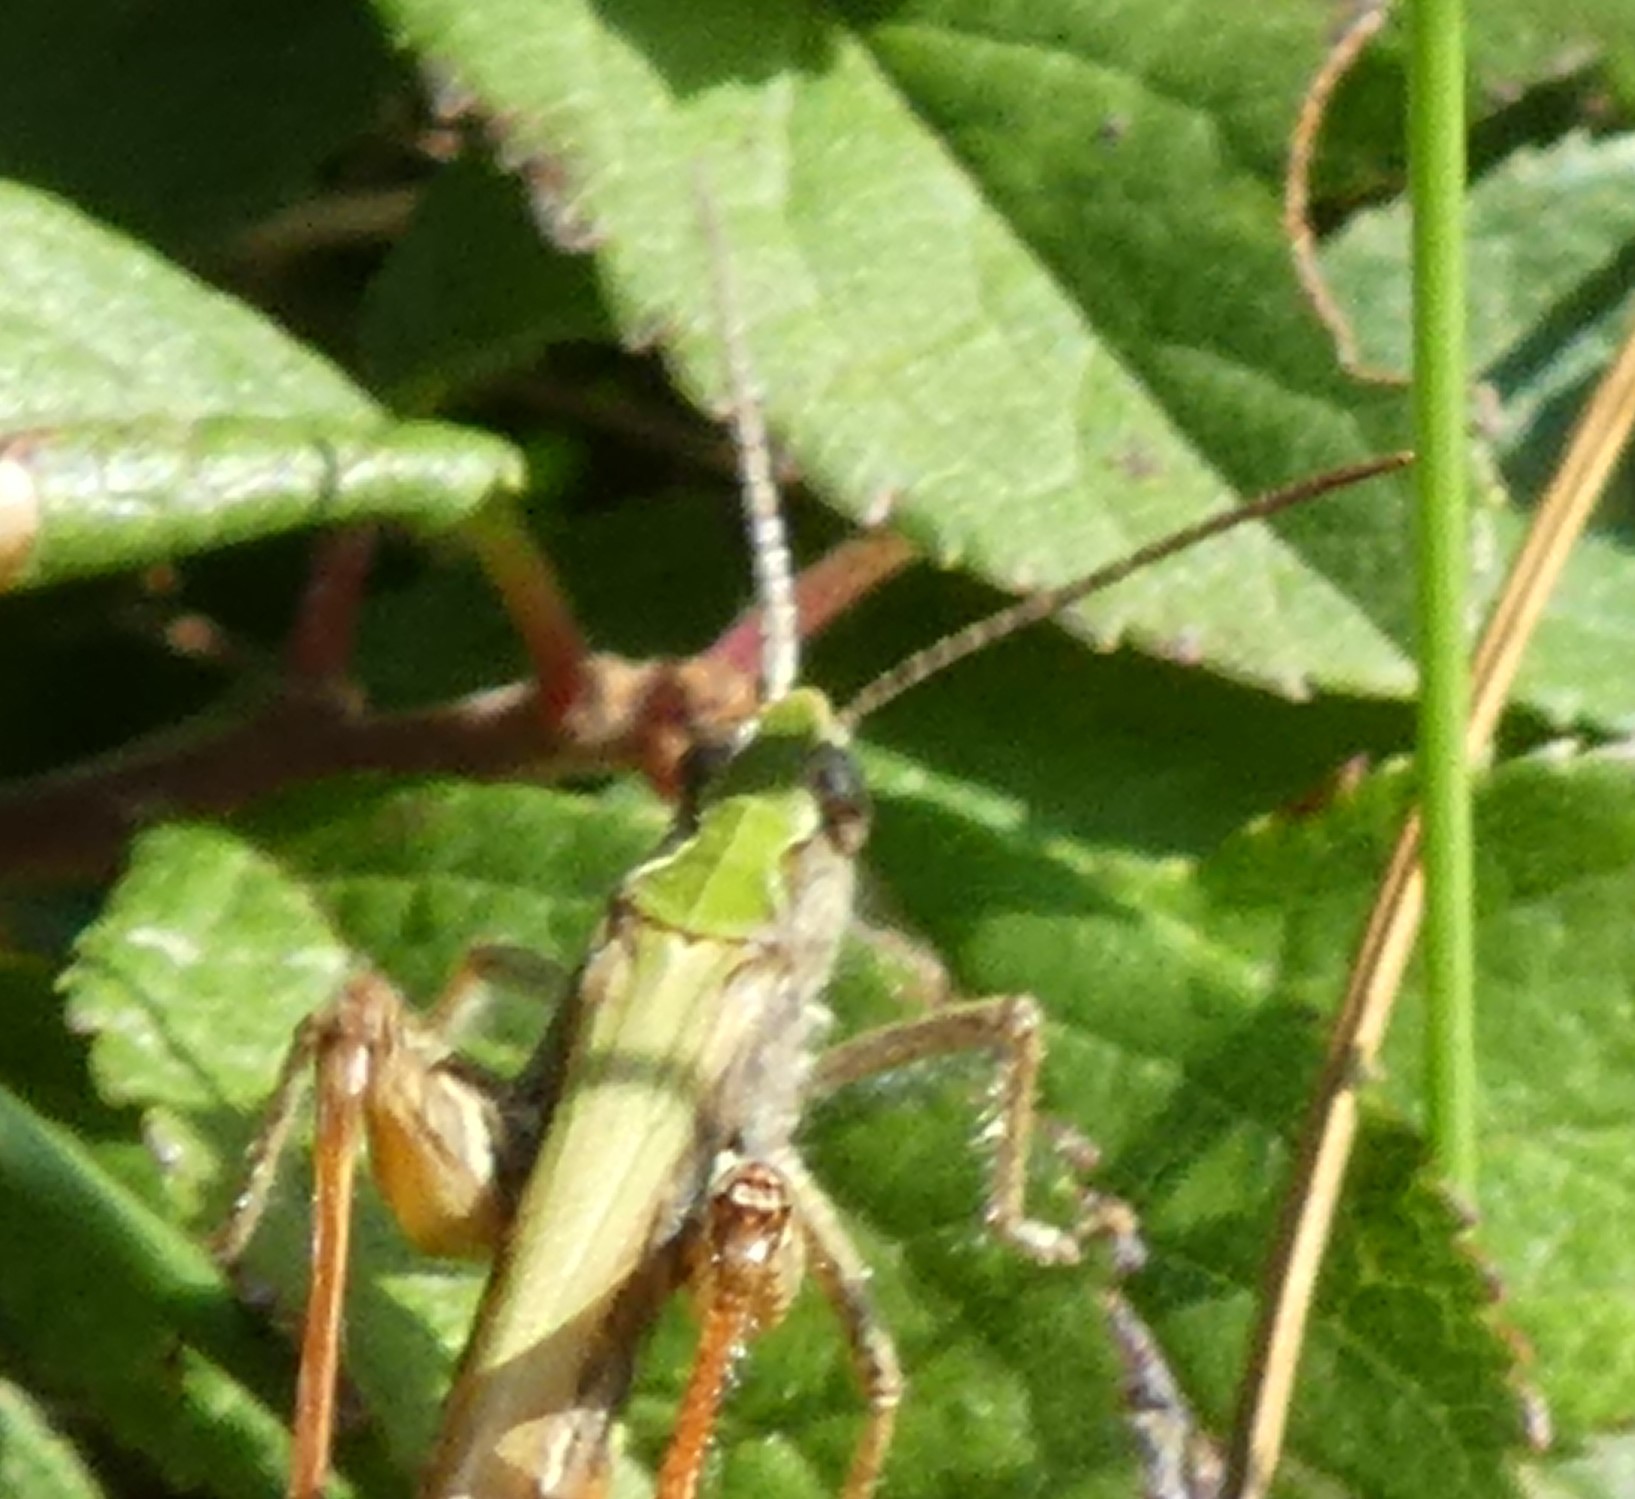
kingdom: Animalia
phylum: Arthropoda
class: Insecta
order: Orthoptera
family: Acrididae
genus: Chorthippus
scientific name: Chorthippus brunneus
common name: Field grasshopper
